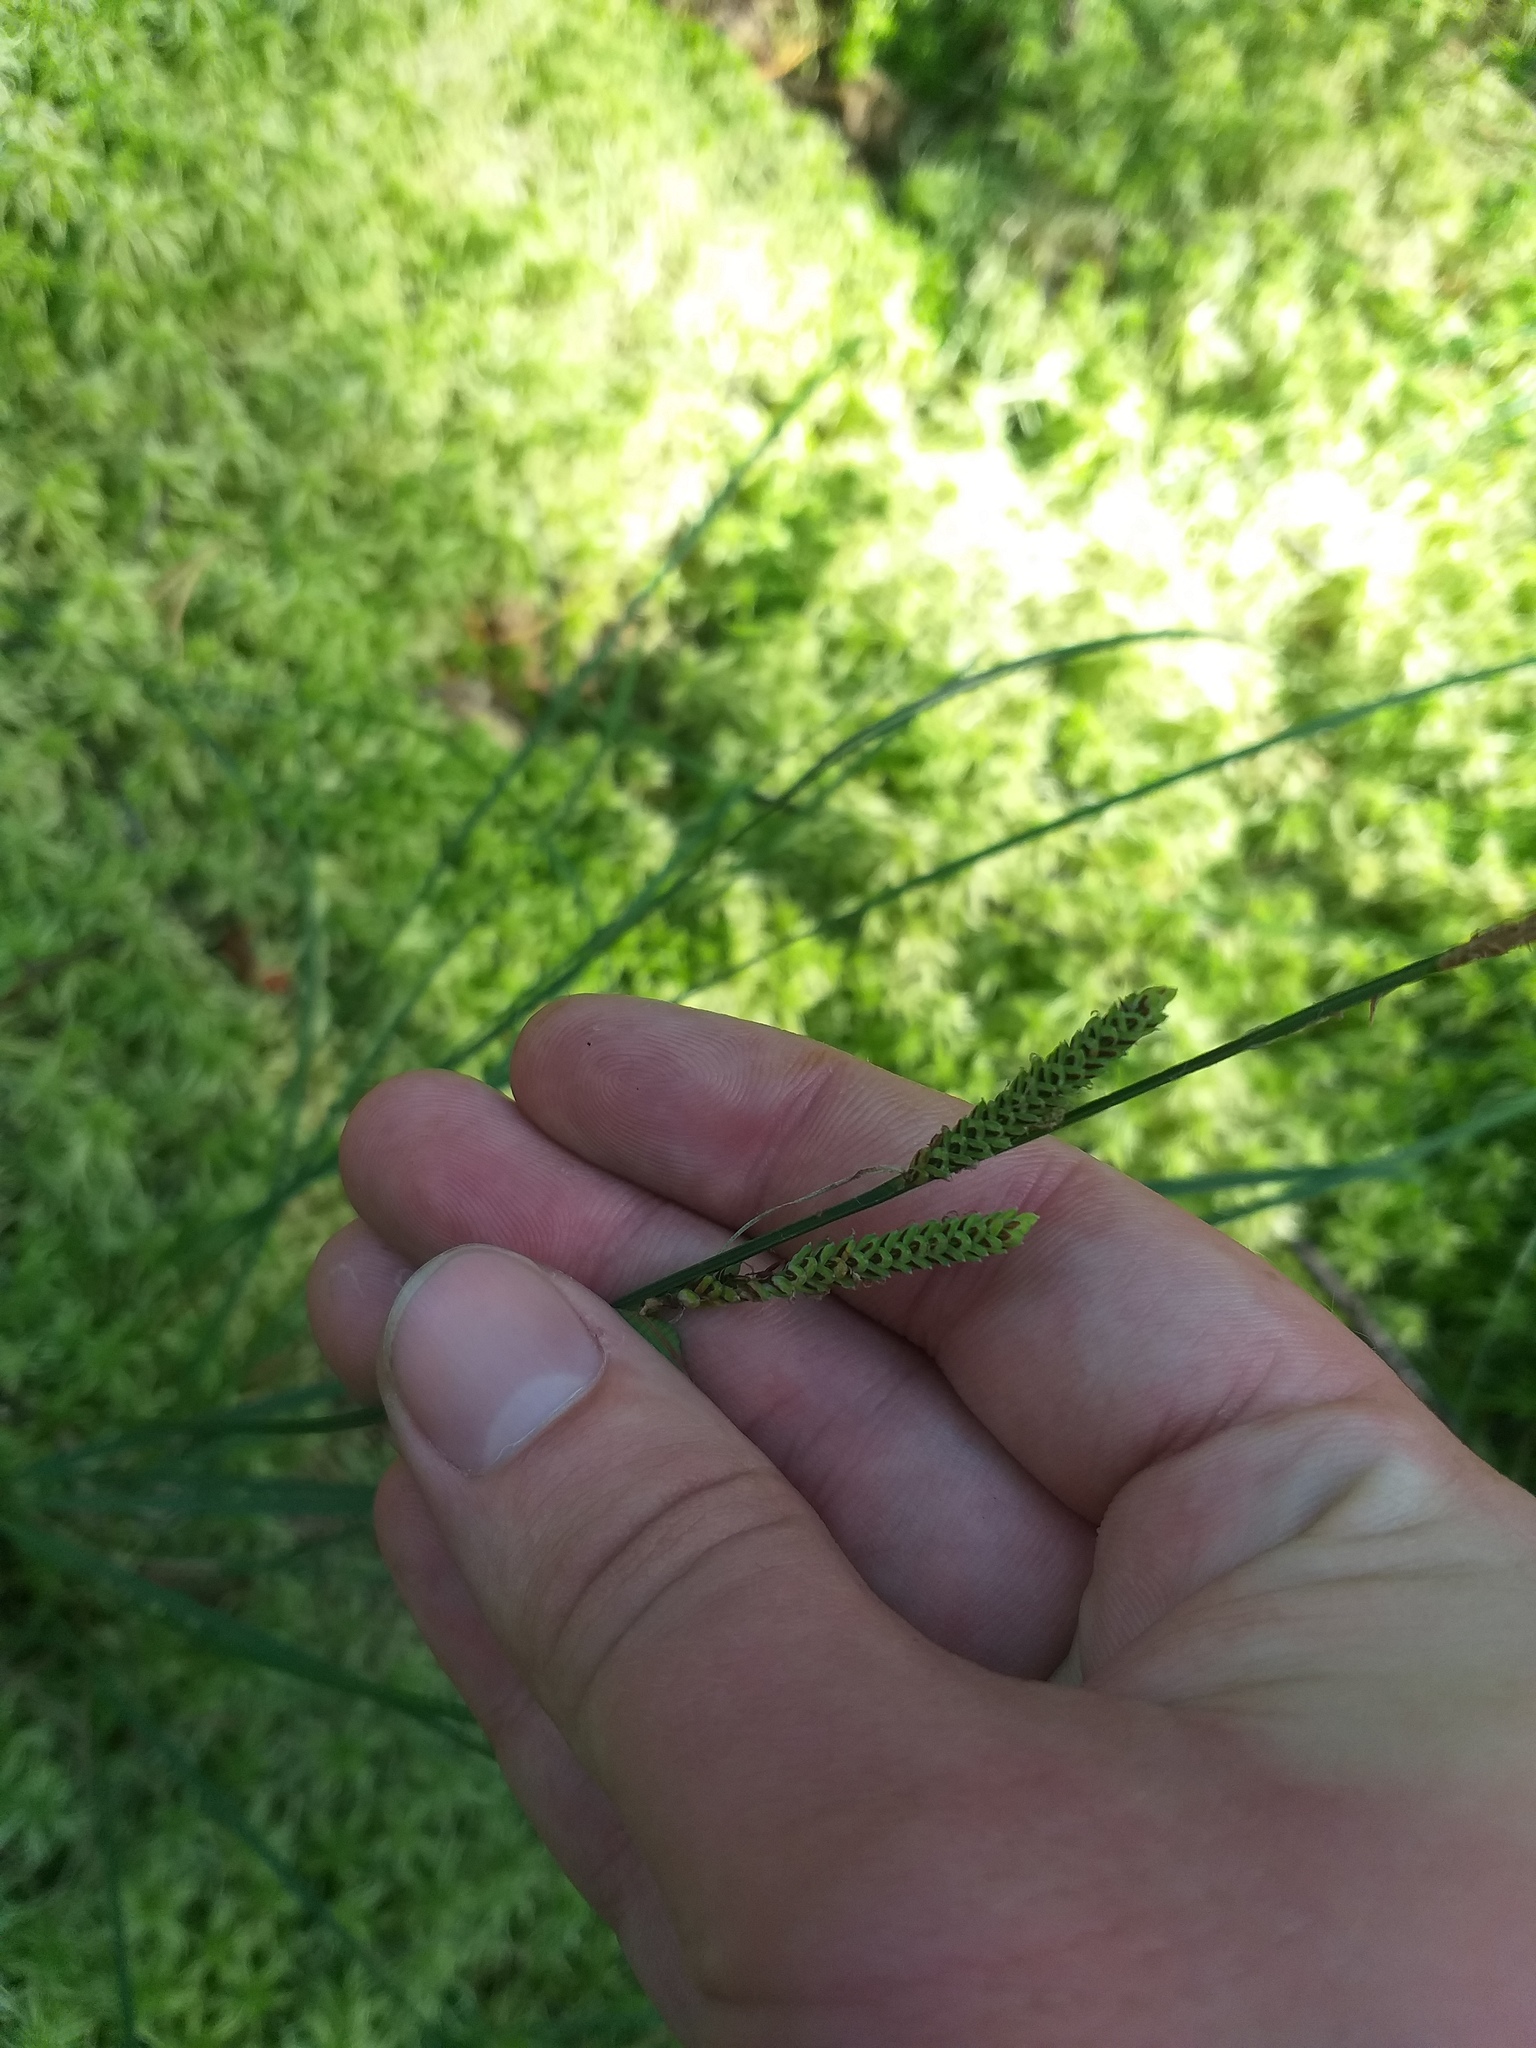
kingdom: Plantae
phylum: Tracheophyta
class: Liliopsida
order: Poales
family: Cyperaceae
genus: Carex
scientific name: Carex nigra
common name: Common sedge
